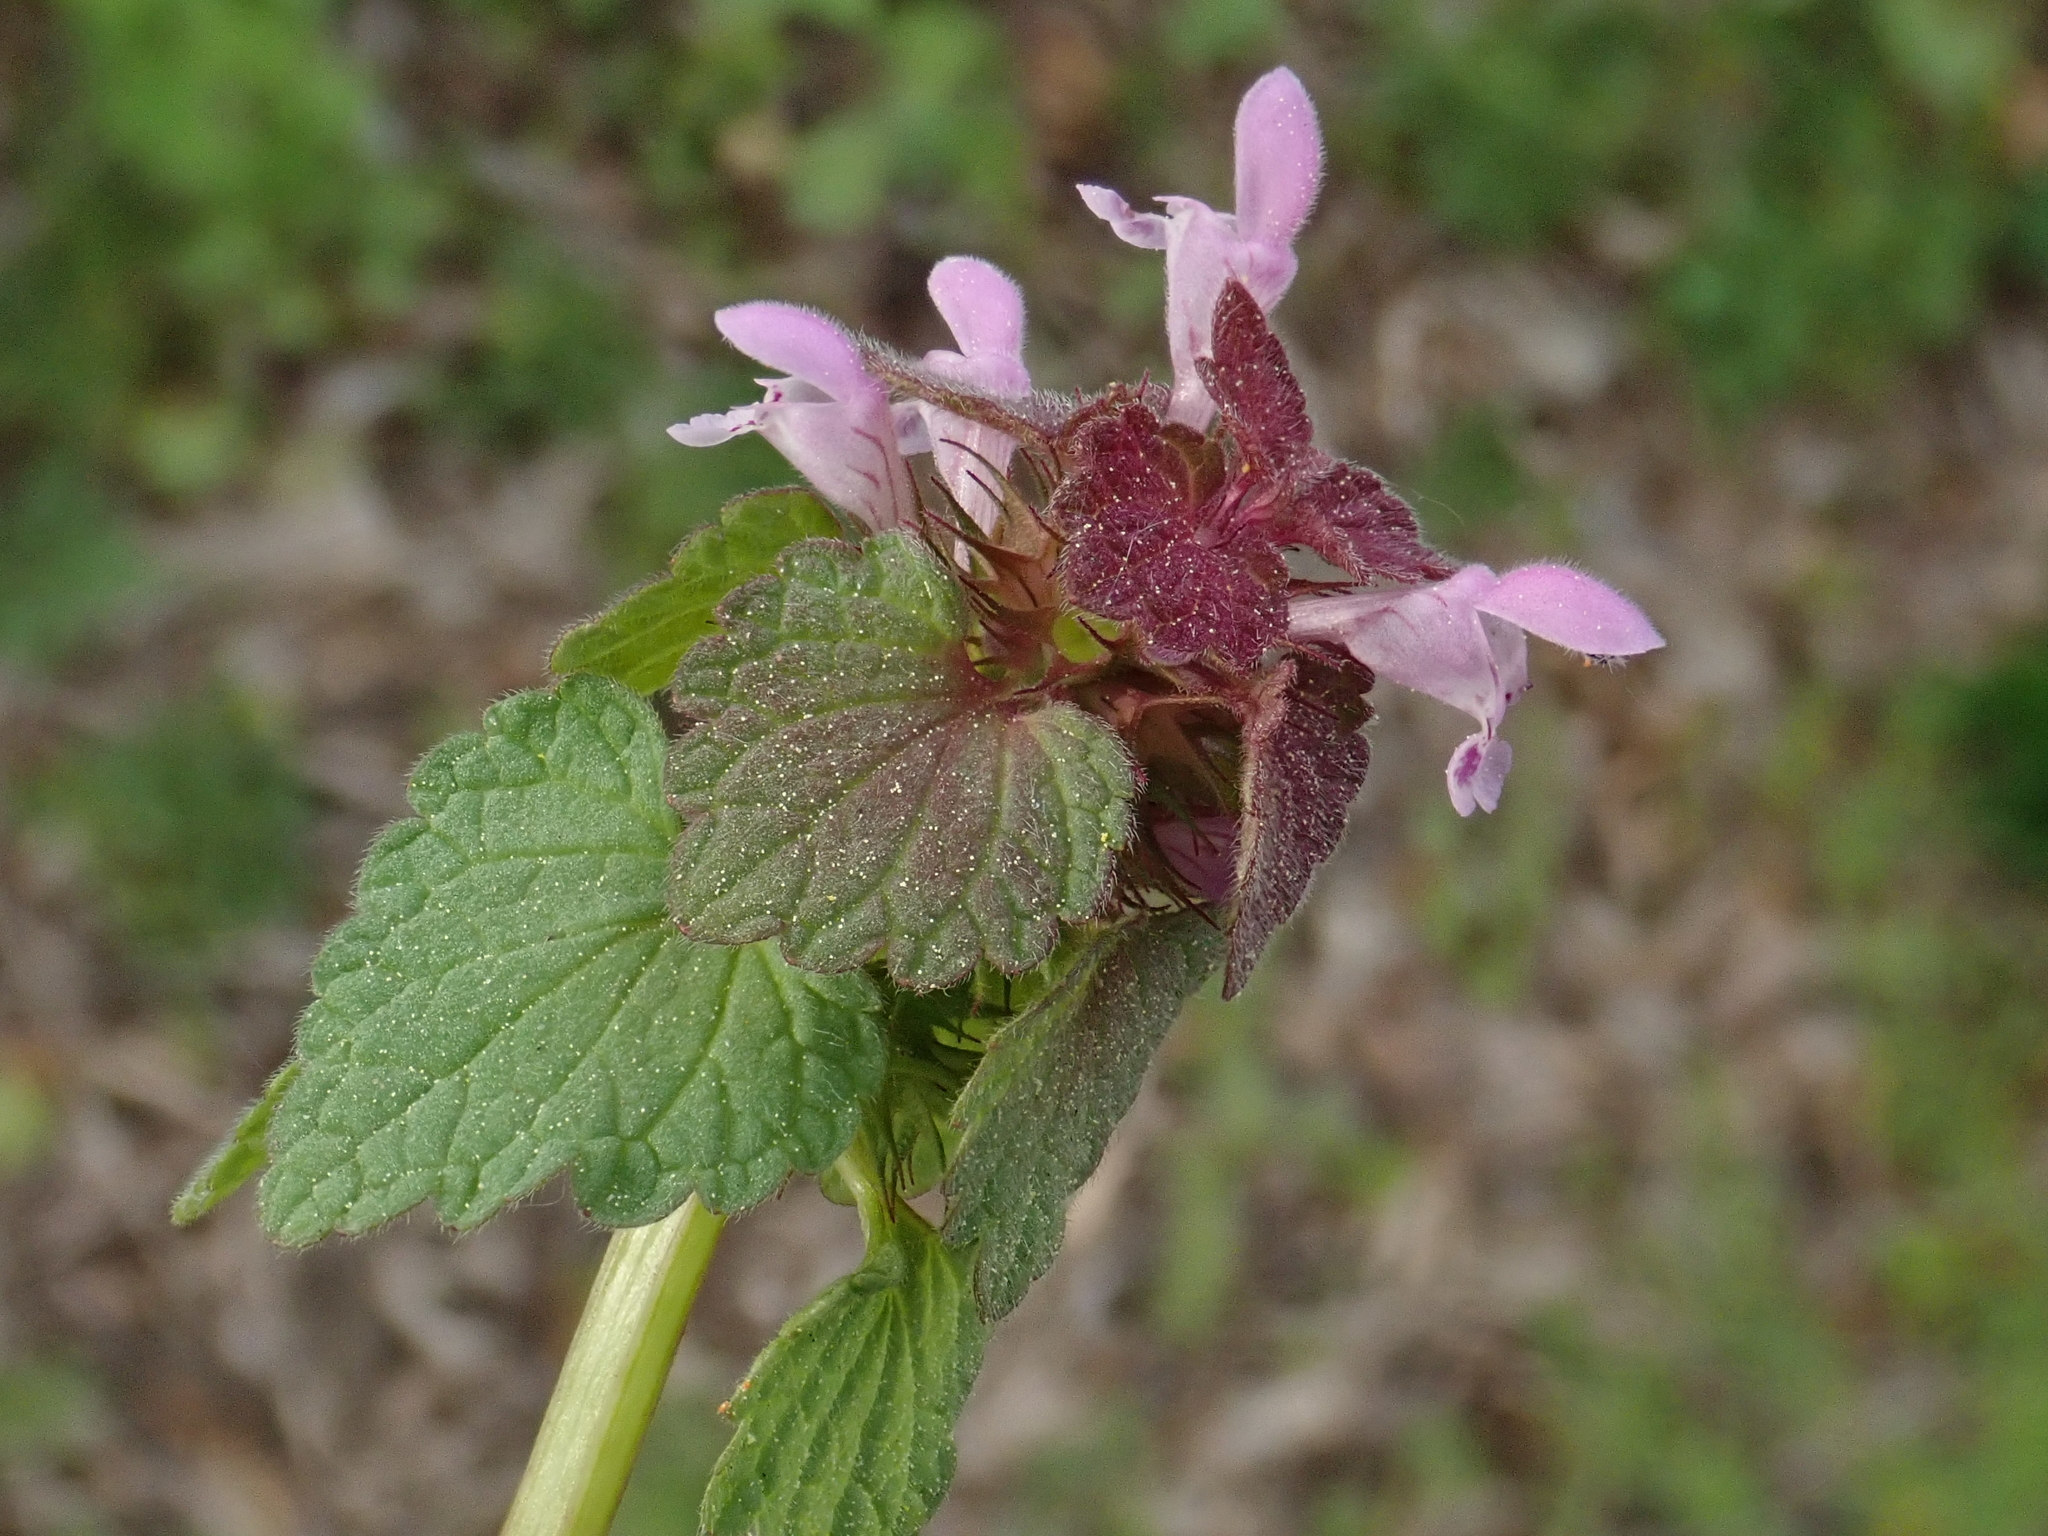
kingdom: Plantae
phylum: Tracheophyta
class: Magnoliopsida
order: Lamiales
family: Lamiaceae
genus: Lamium
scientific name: Lamium purpureum
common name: Red dead-nettle
